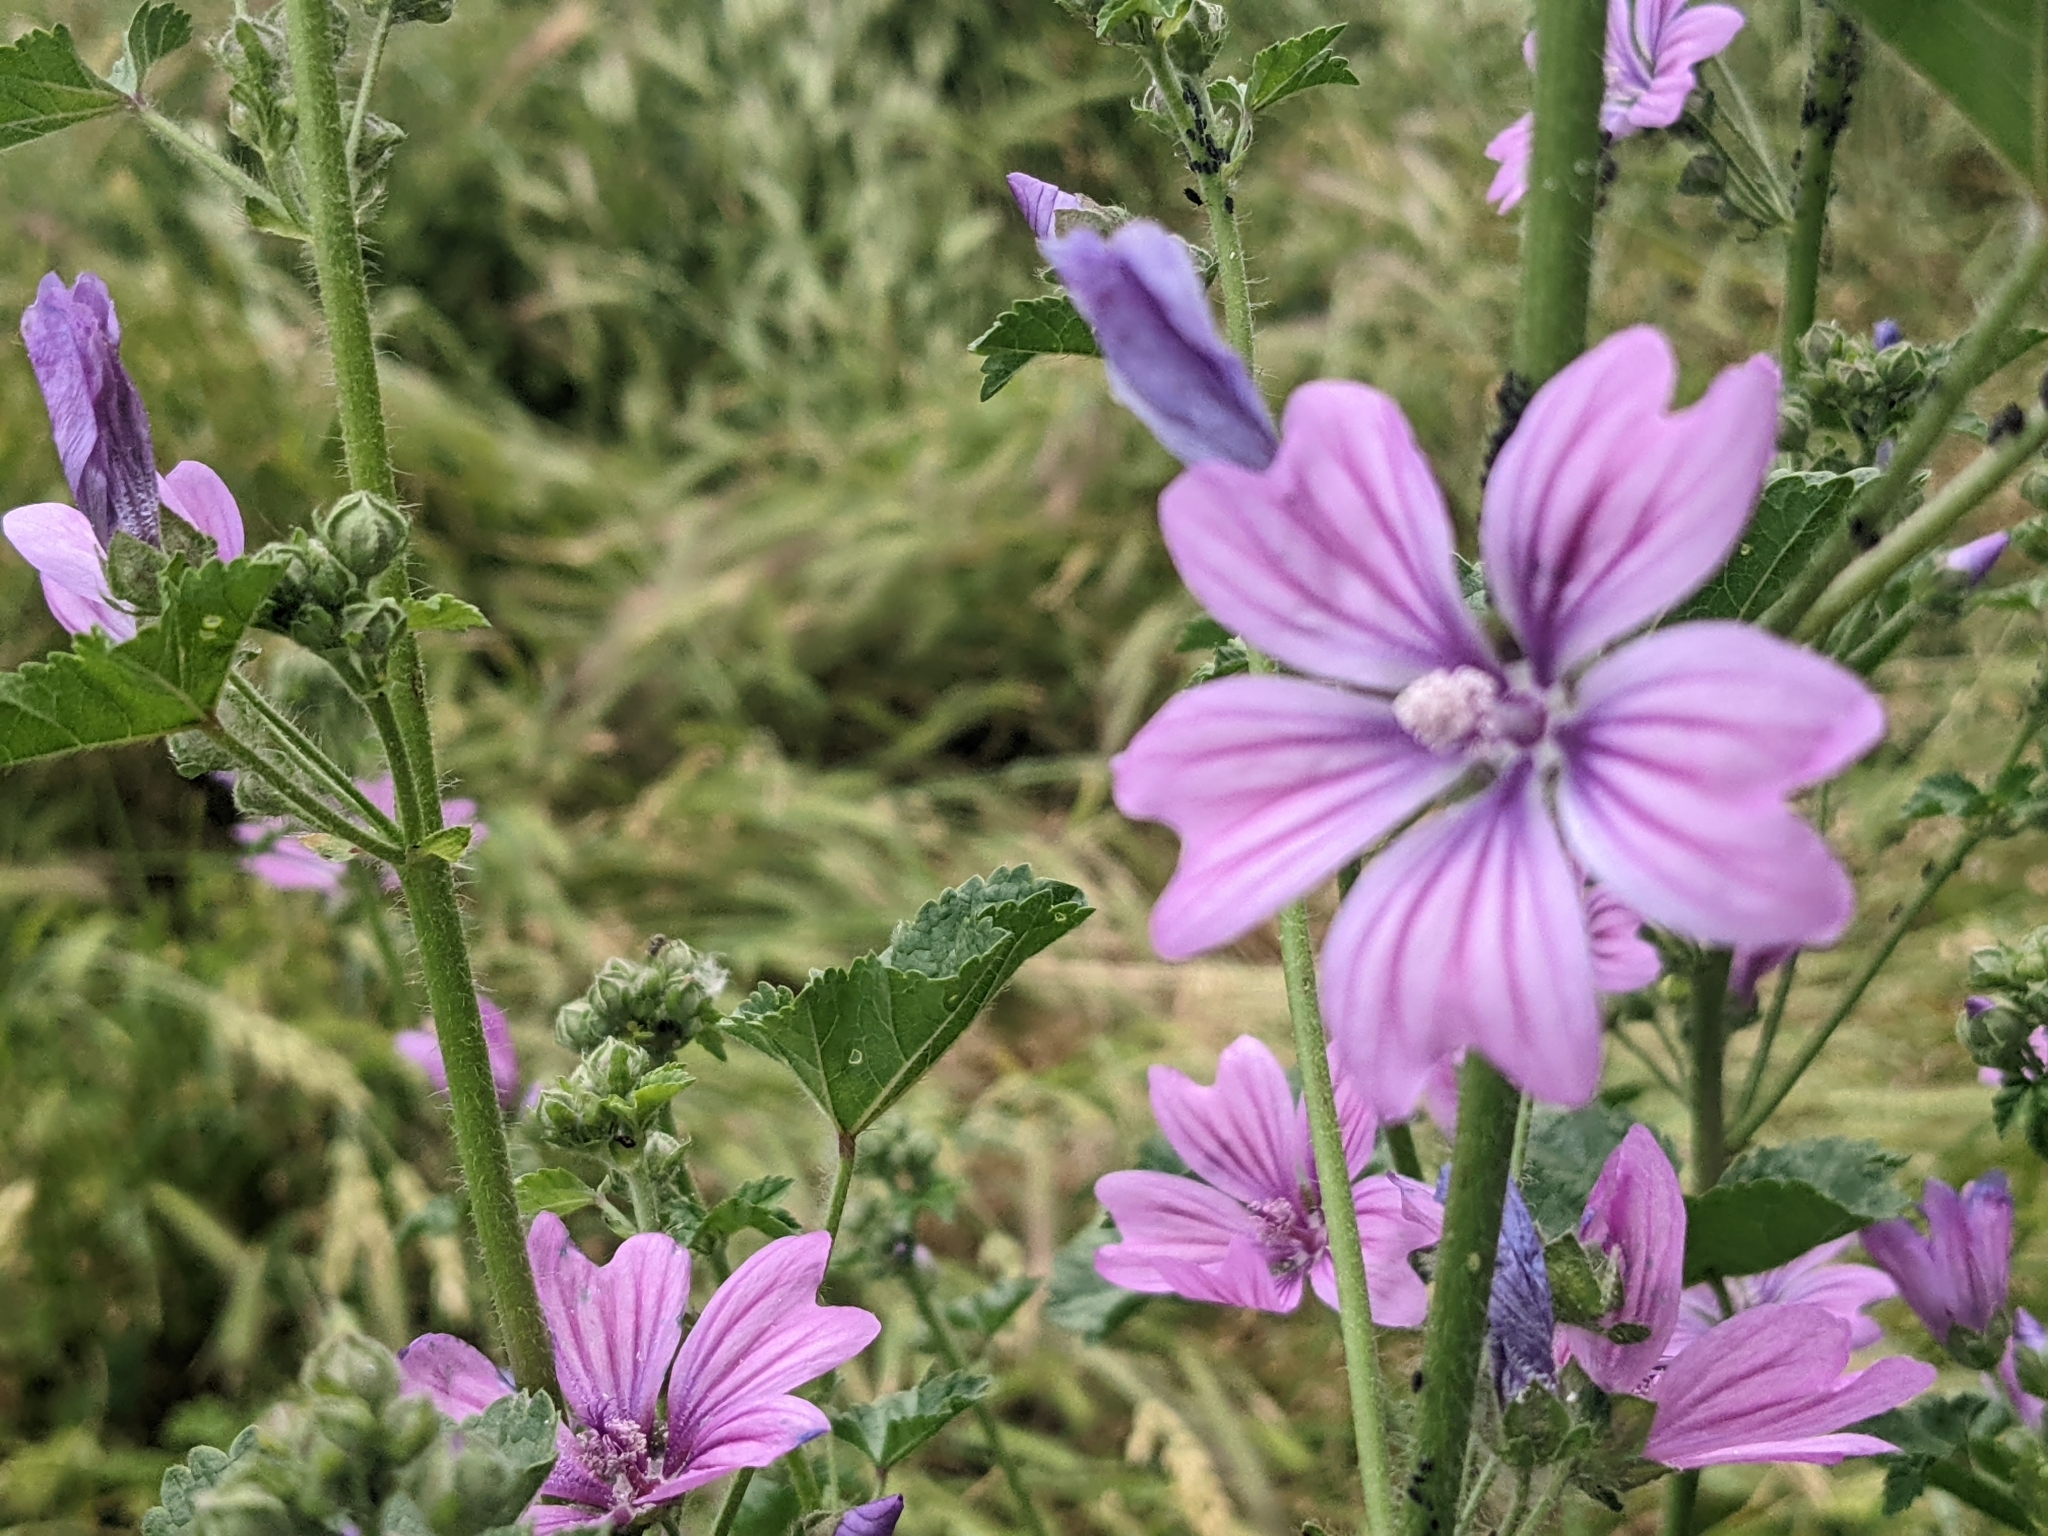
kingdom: Plantae
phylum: Tracheophyta
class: Magnoliopsida
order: Malvales
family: Malvaceae
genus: Malva
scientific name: Malva sylvestris
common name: Common mallow
